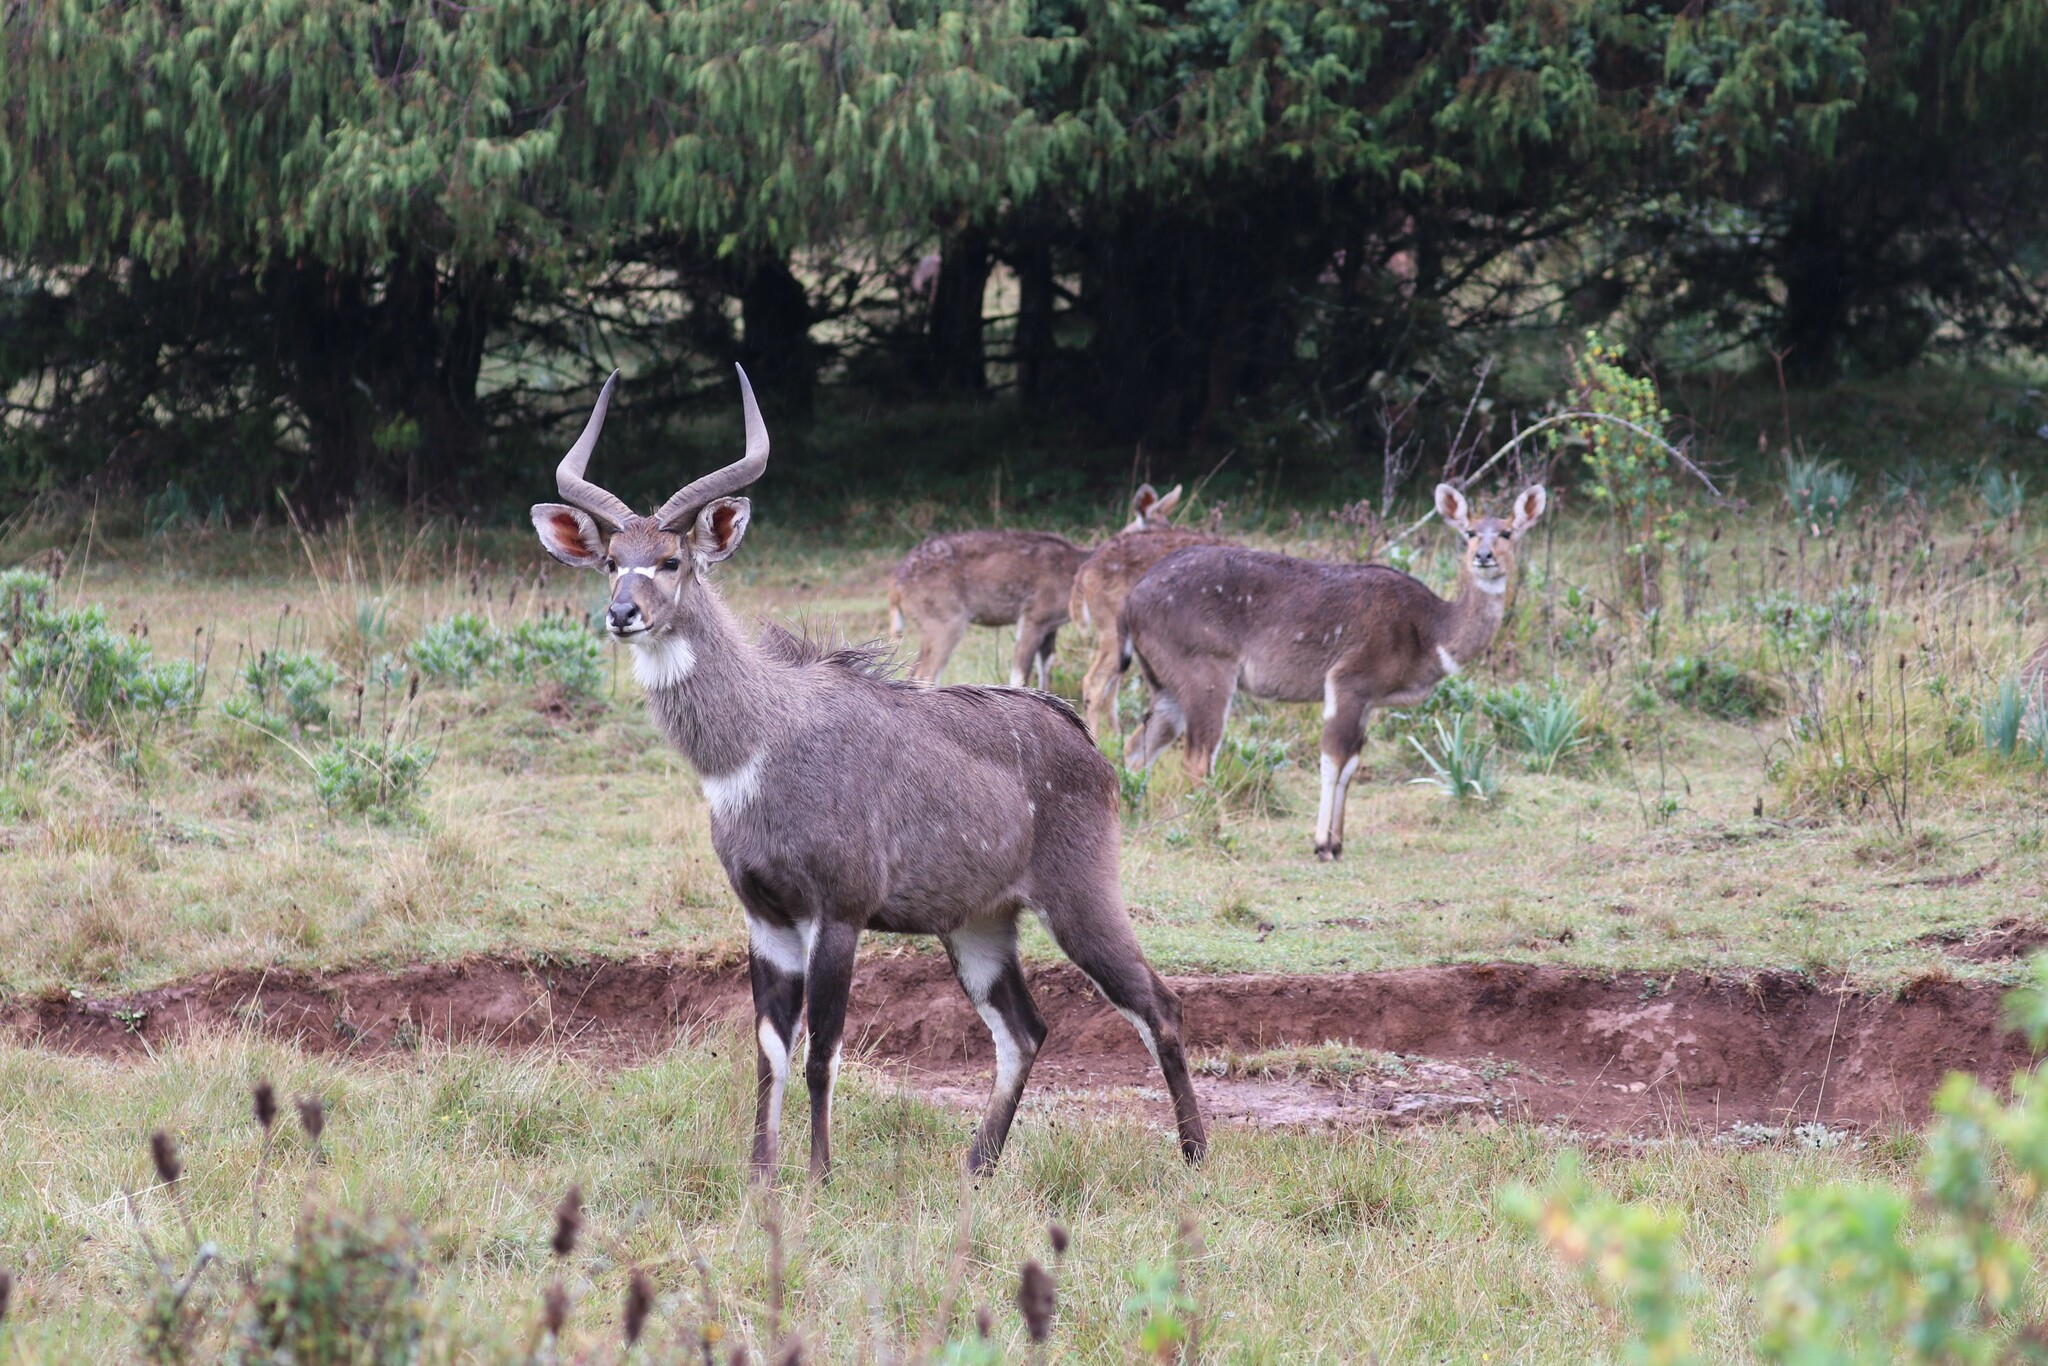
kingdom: Animalia
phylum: Chordata
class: Mammalia
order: Artiodactyla
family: Bovidae
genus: Tragelaphus
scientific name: Tragelaphus buxtoni
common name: Mountain nyala
